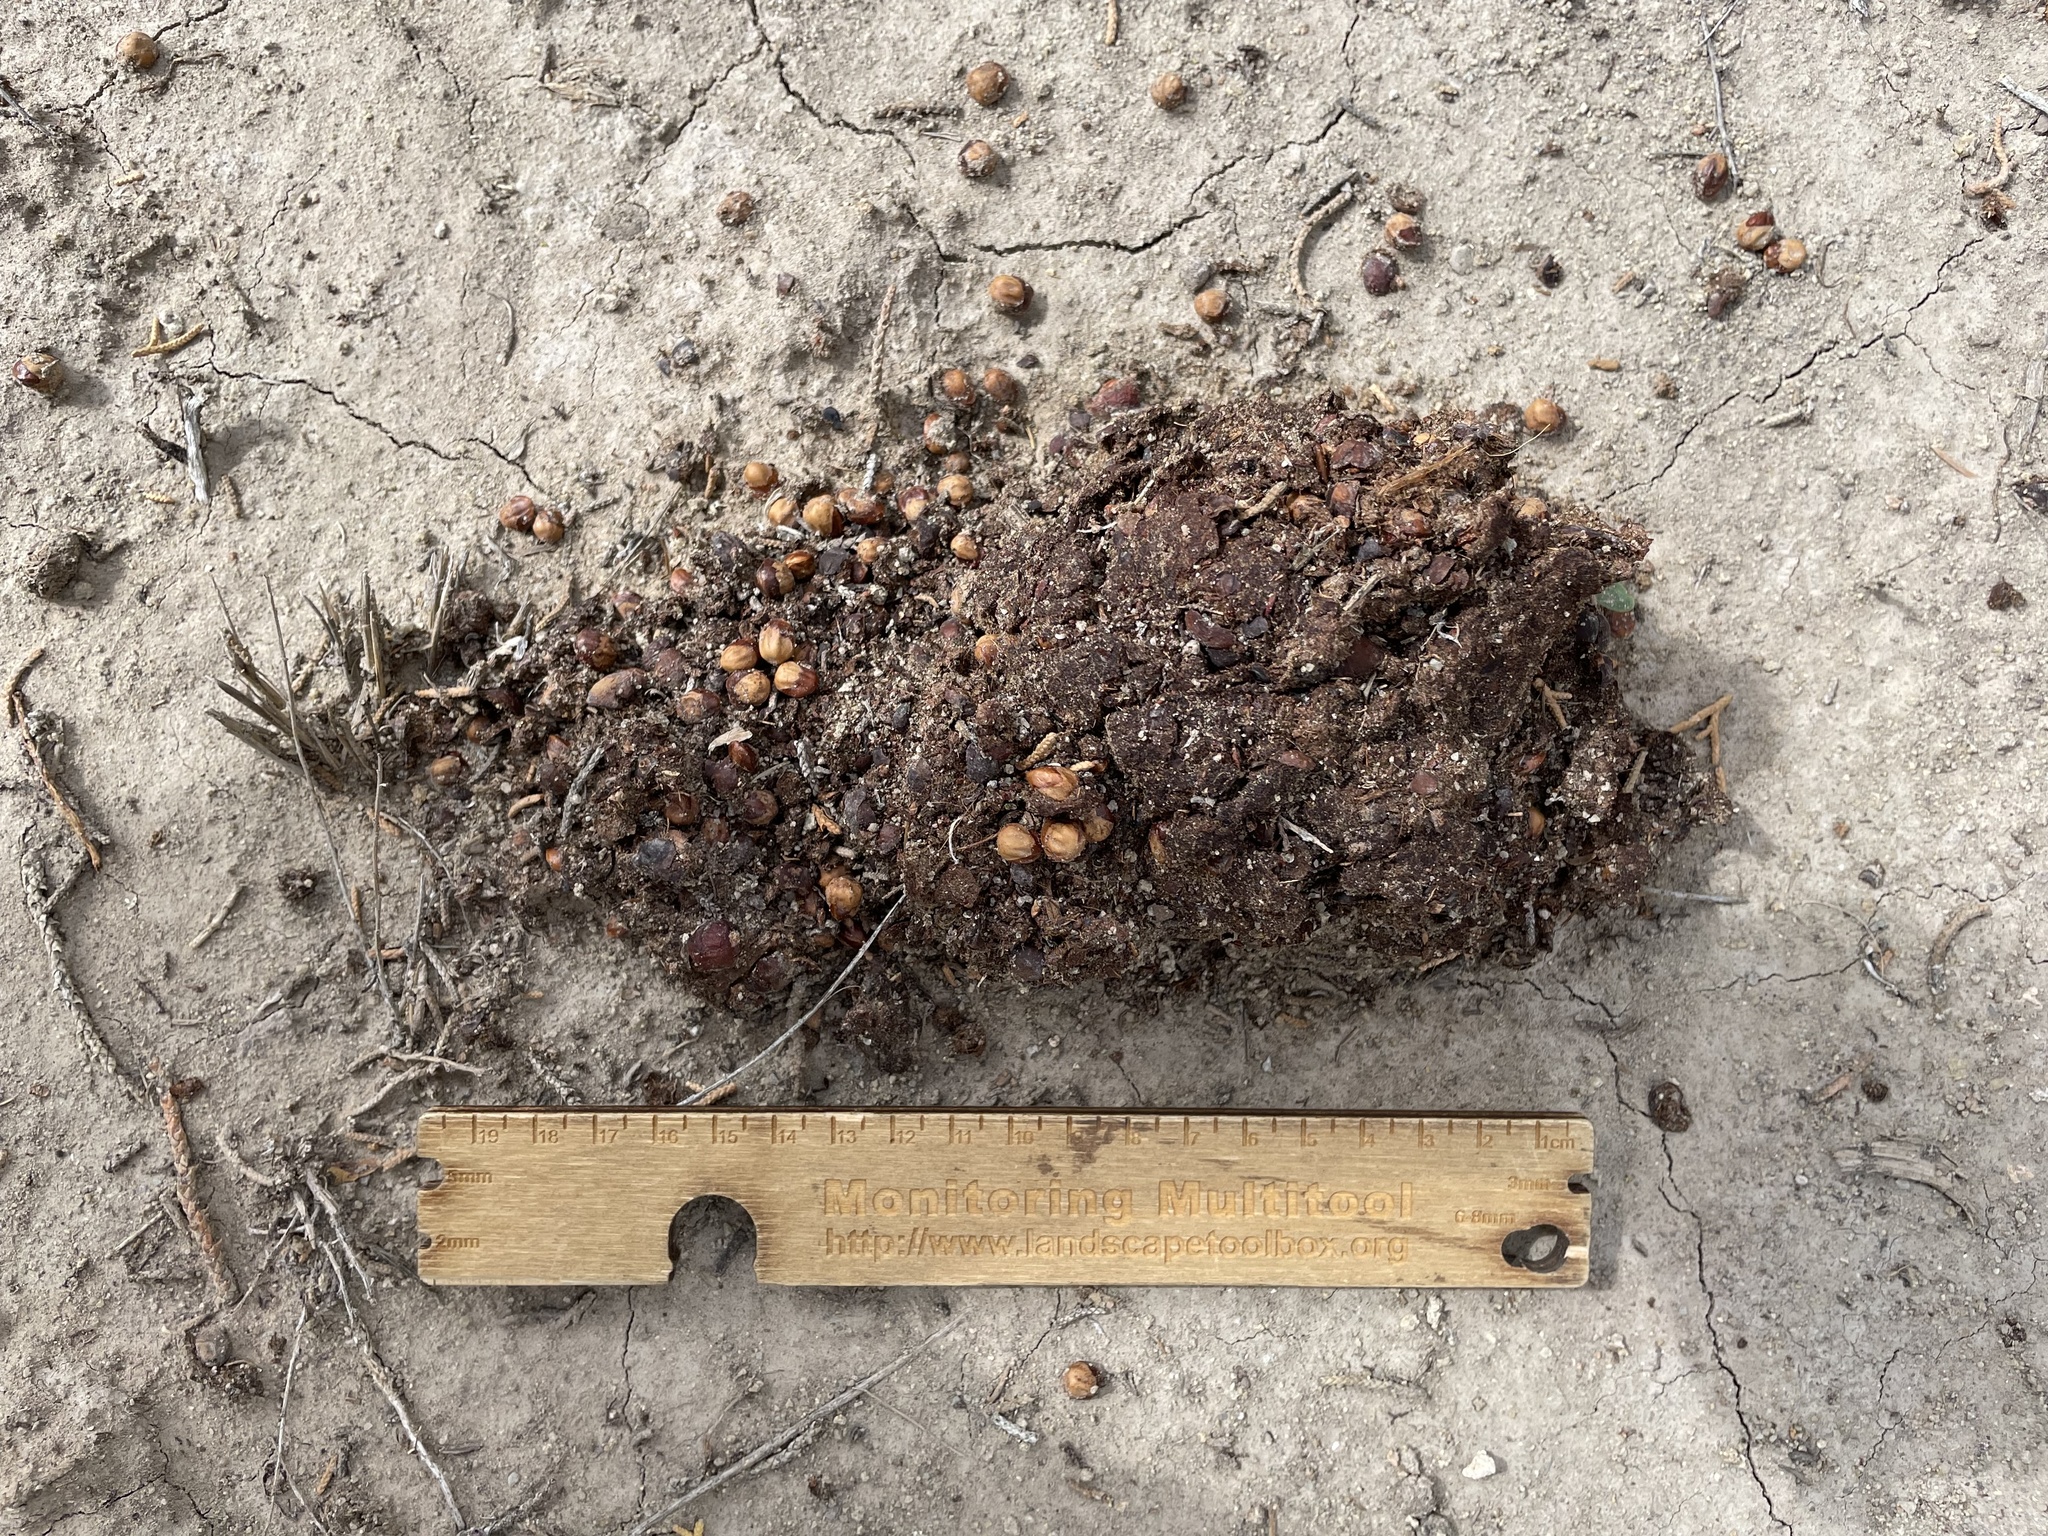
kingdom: Animalia
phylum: Chordata
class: Mammalia
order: Carnivora
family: Ursidae
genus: Ursus
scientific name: Ursus americanus
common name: American black bear
